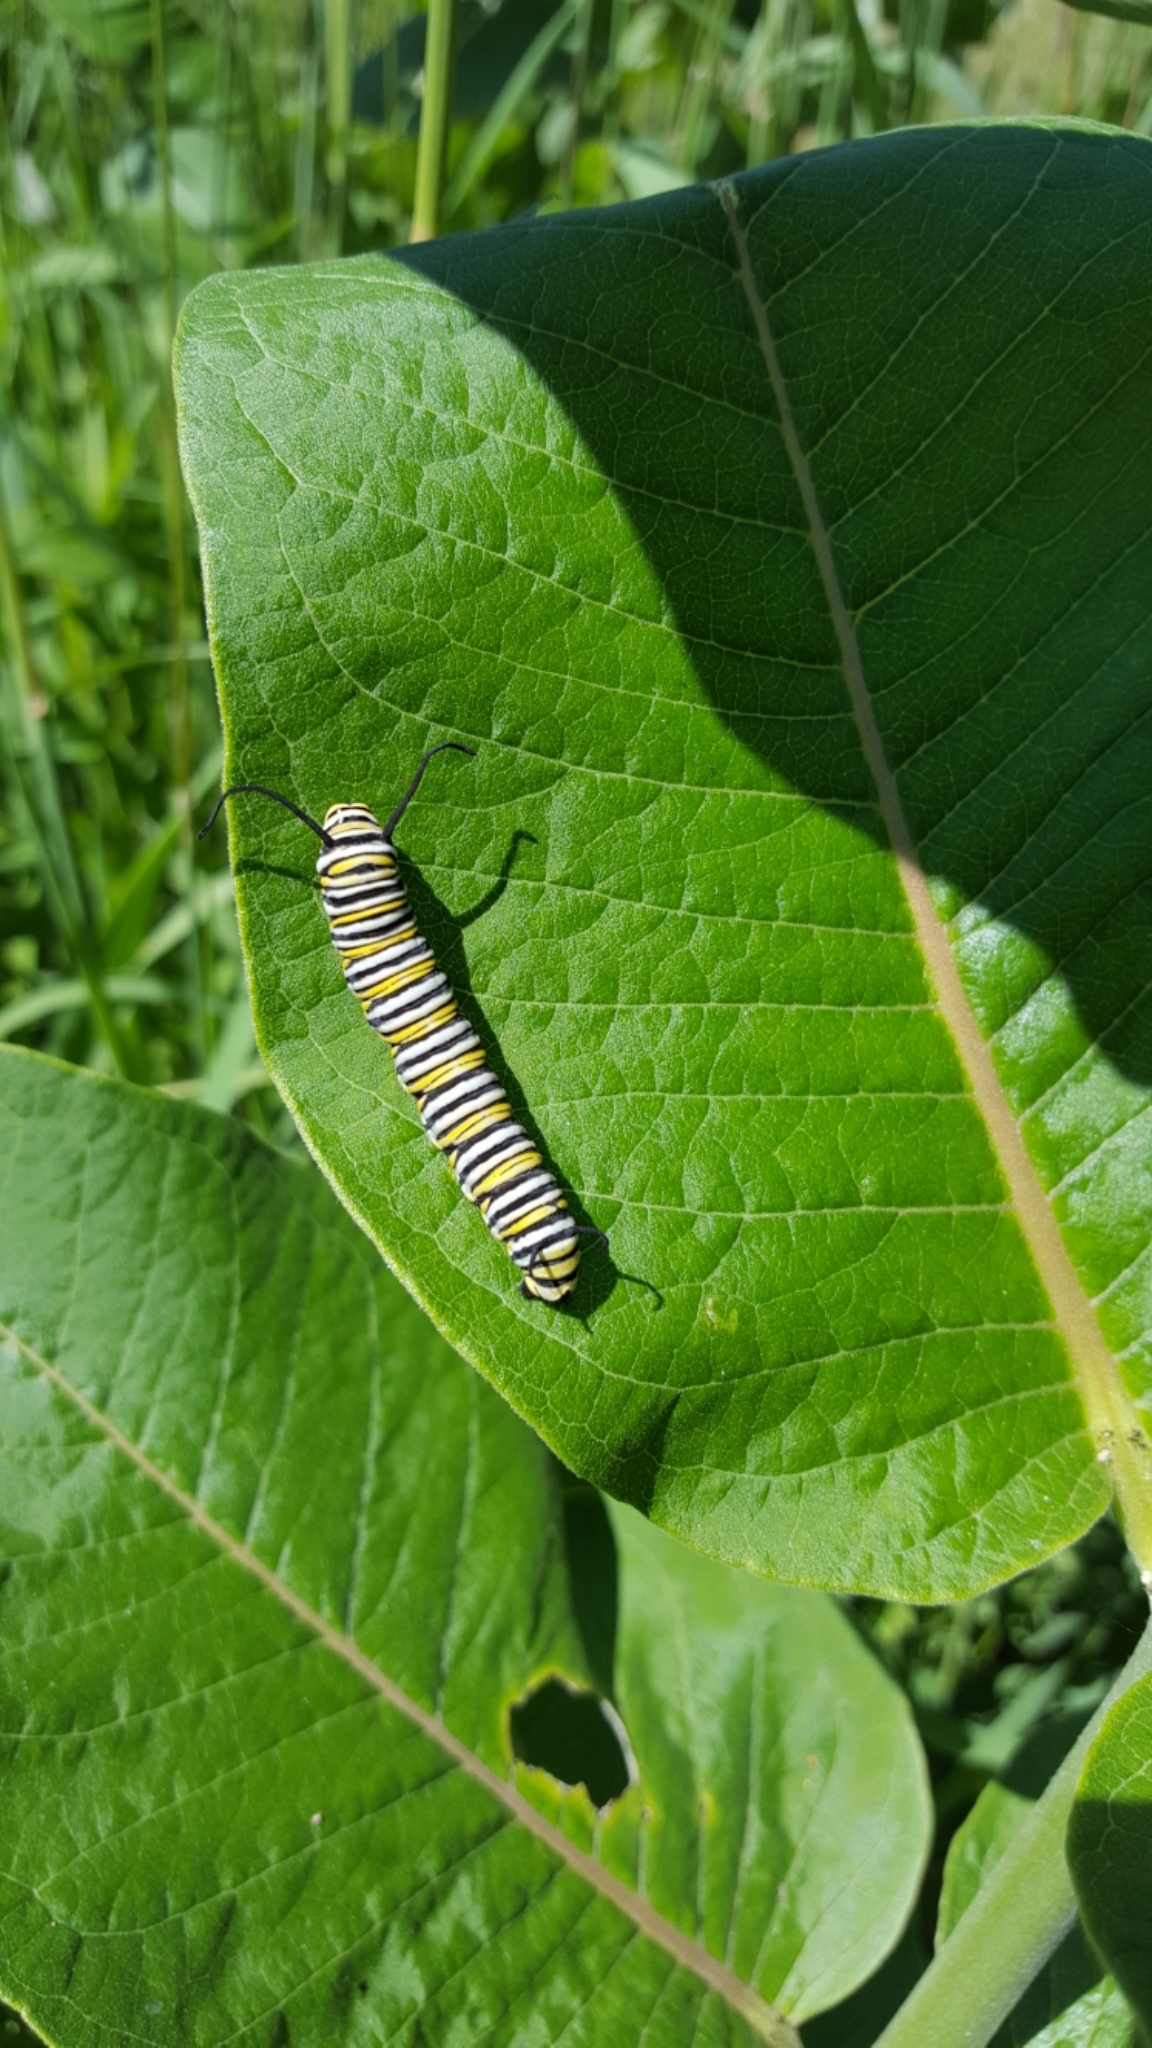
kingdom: Animalia
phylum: Arthropoda
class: Insecta
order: Lepidoptera
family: Nymphalidae
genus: Danaus
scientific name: Danaus plexippus
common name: Monarch
